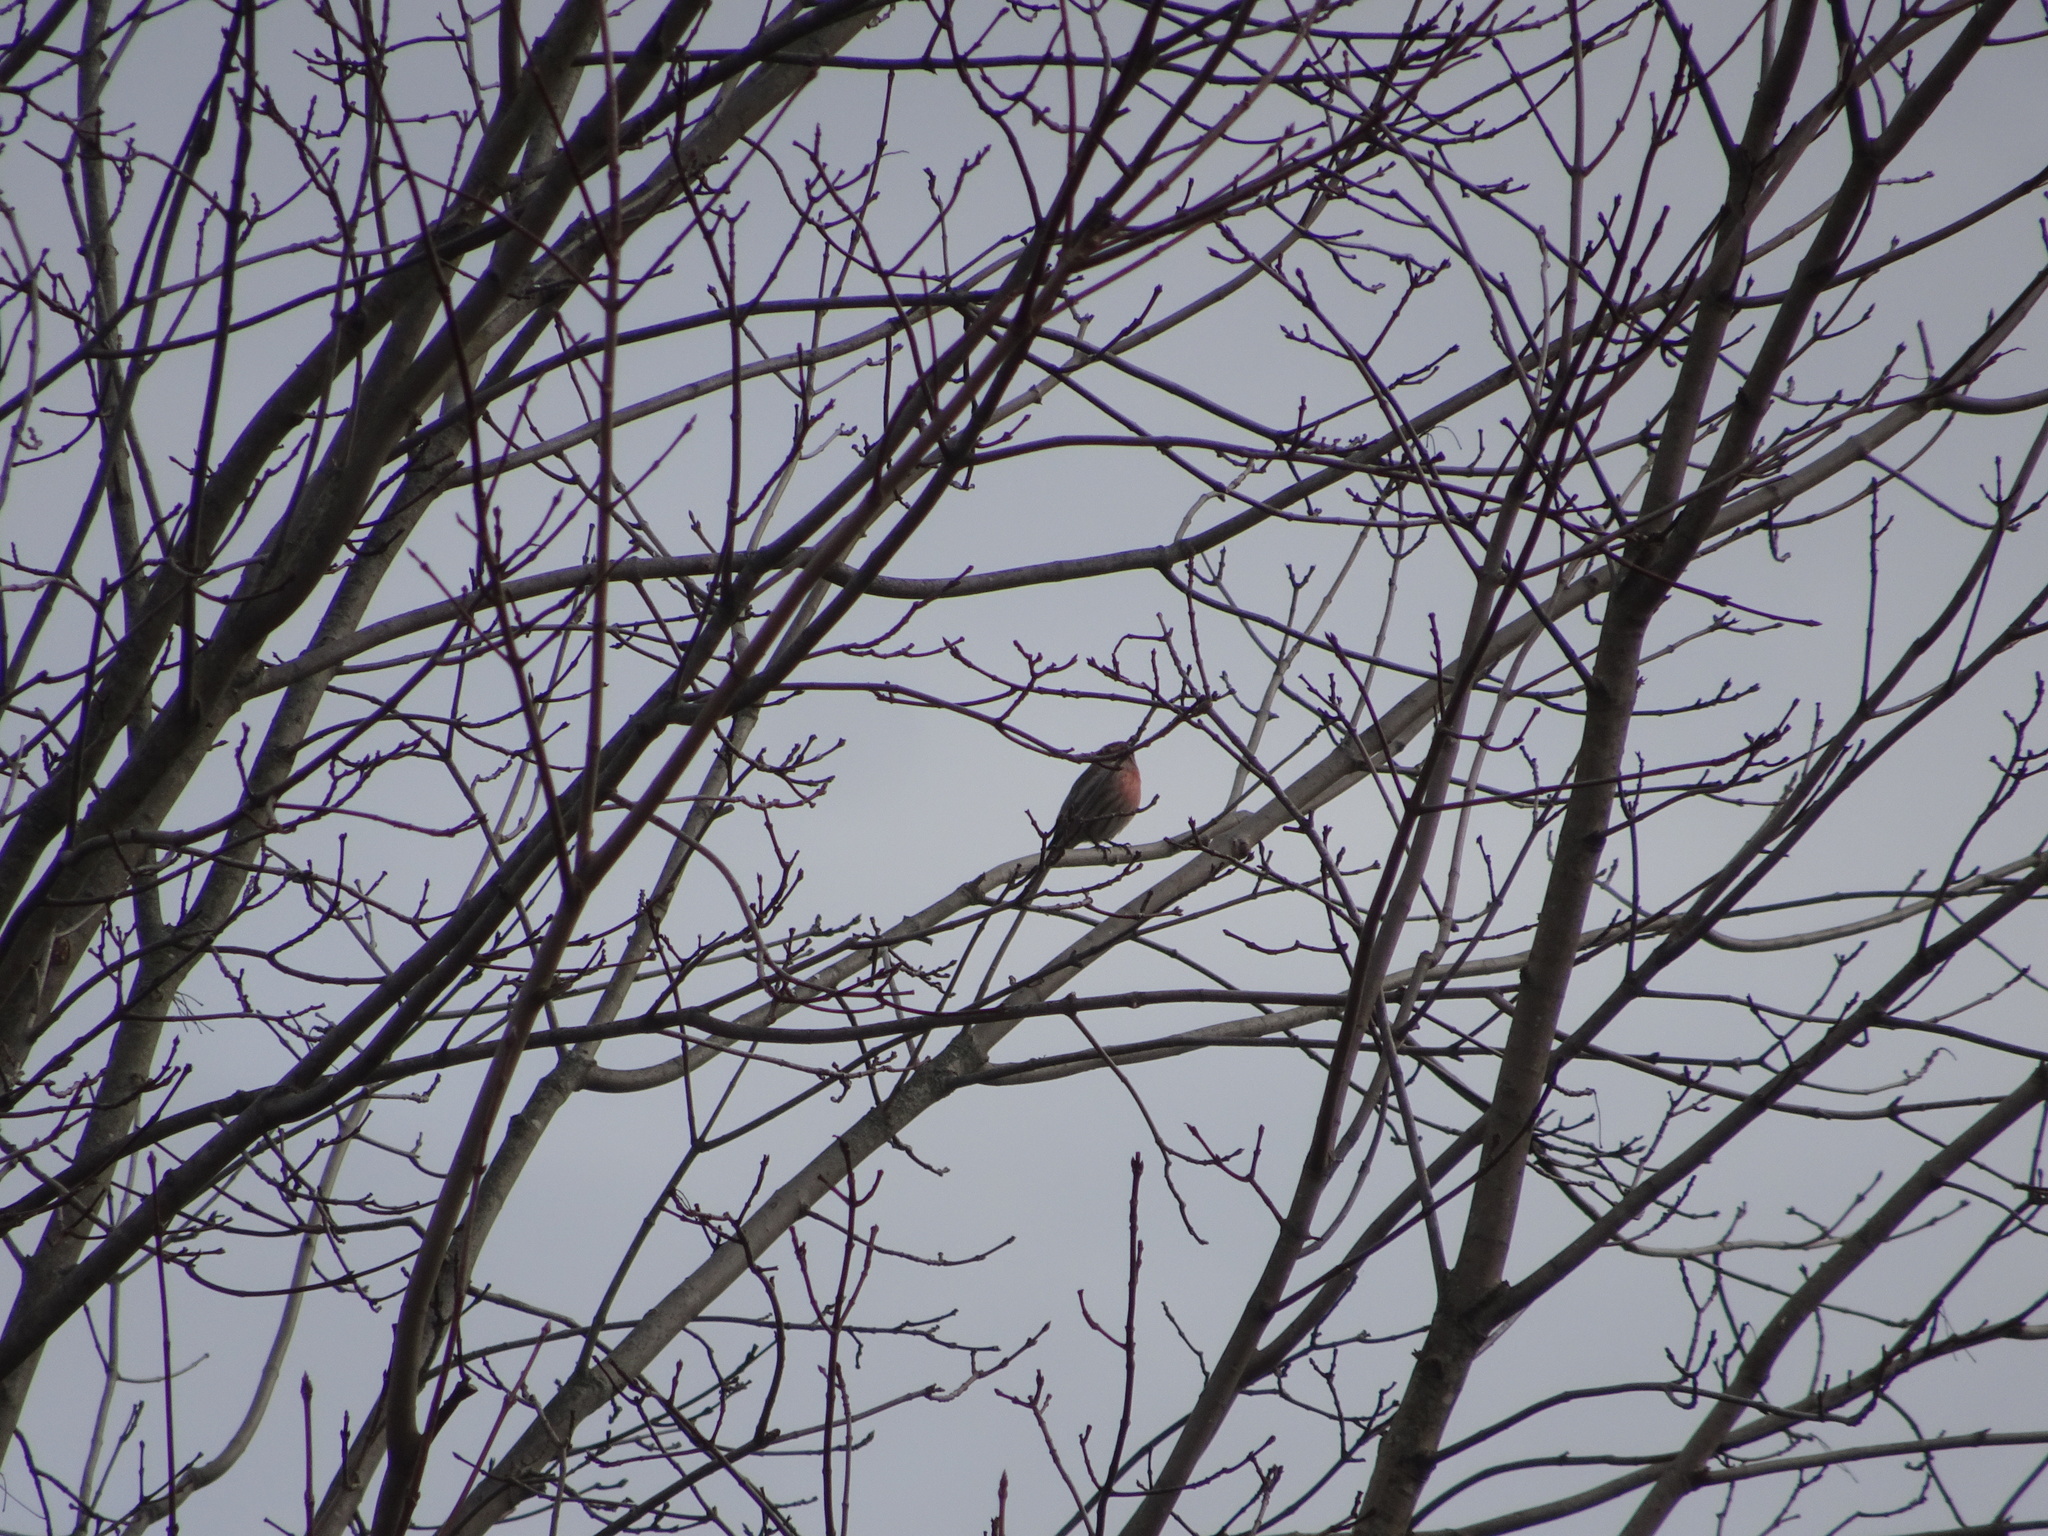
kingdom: Animalia
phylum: Chordata
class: Aves
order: Passeriformes
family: Fringillidae
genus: Haemorhous
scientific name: Haemorhous mexicanus
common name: House finch
